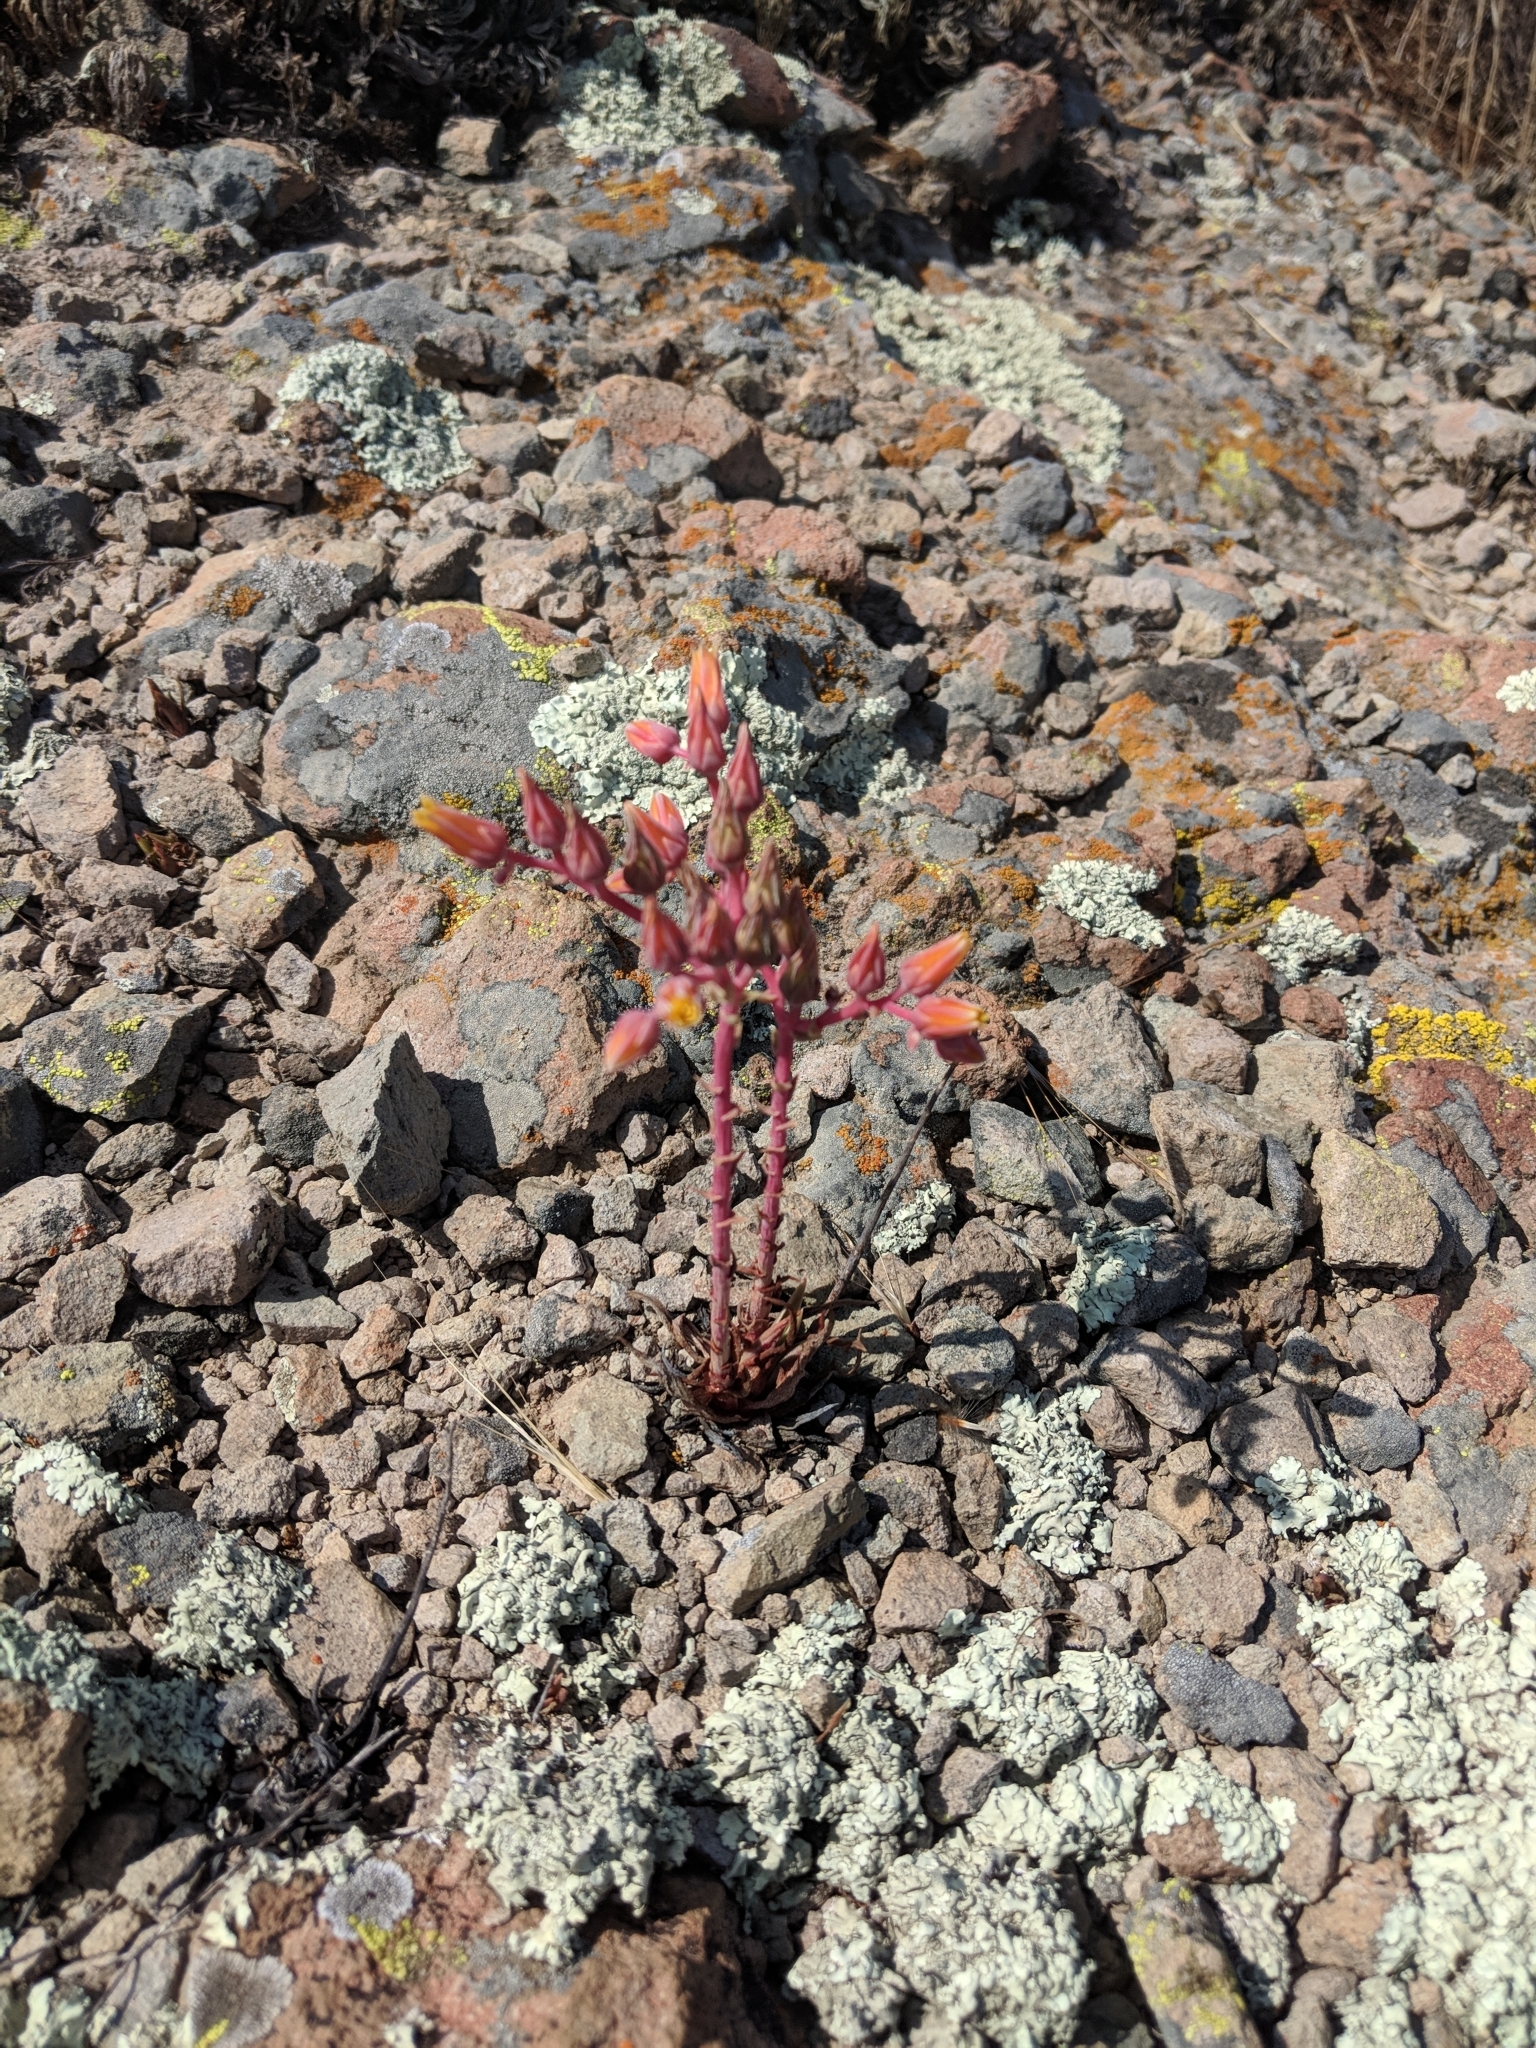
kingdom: Plantae
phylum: Tracheophyta
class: Magnoliopsida
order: Saxifragales
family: Crassulaceae
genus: Dudleya
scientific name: Dudleya lanceolata
